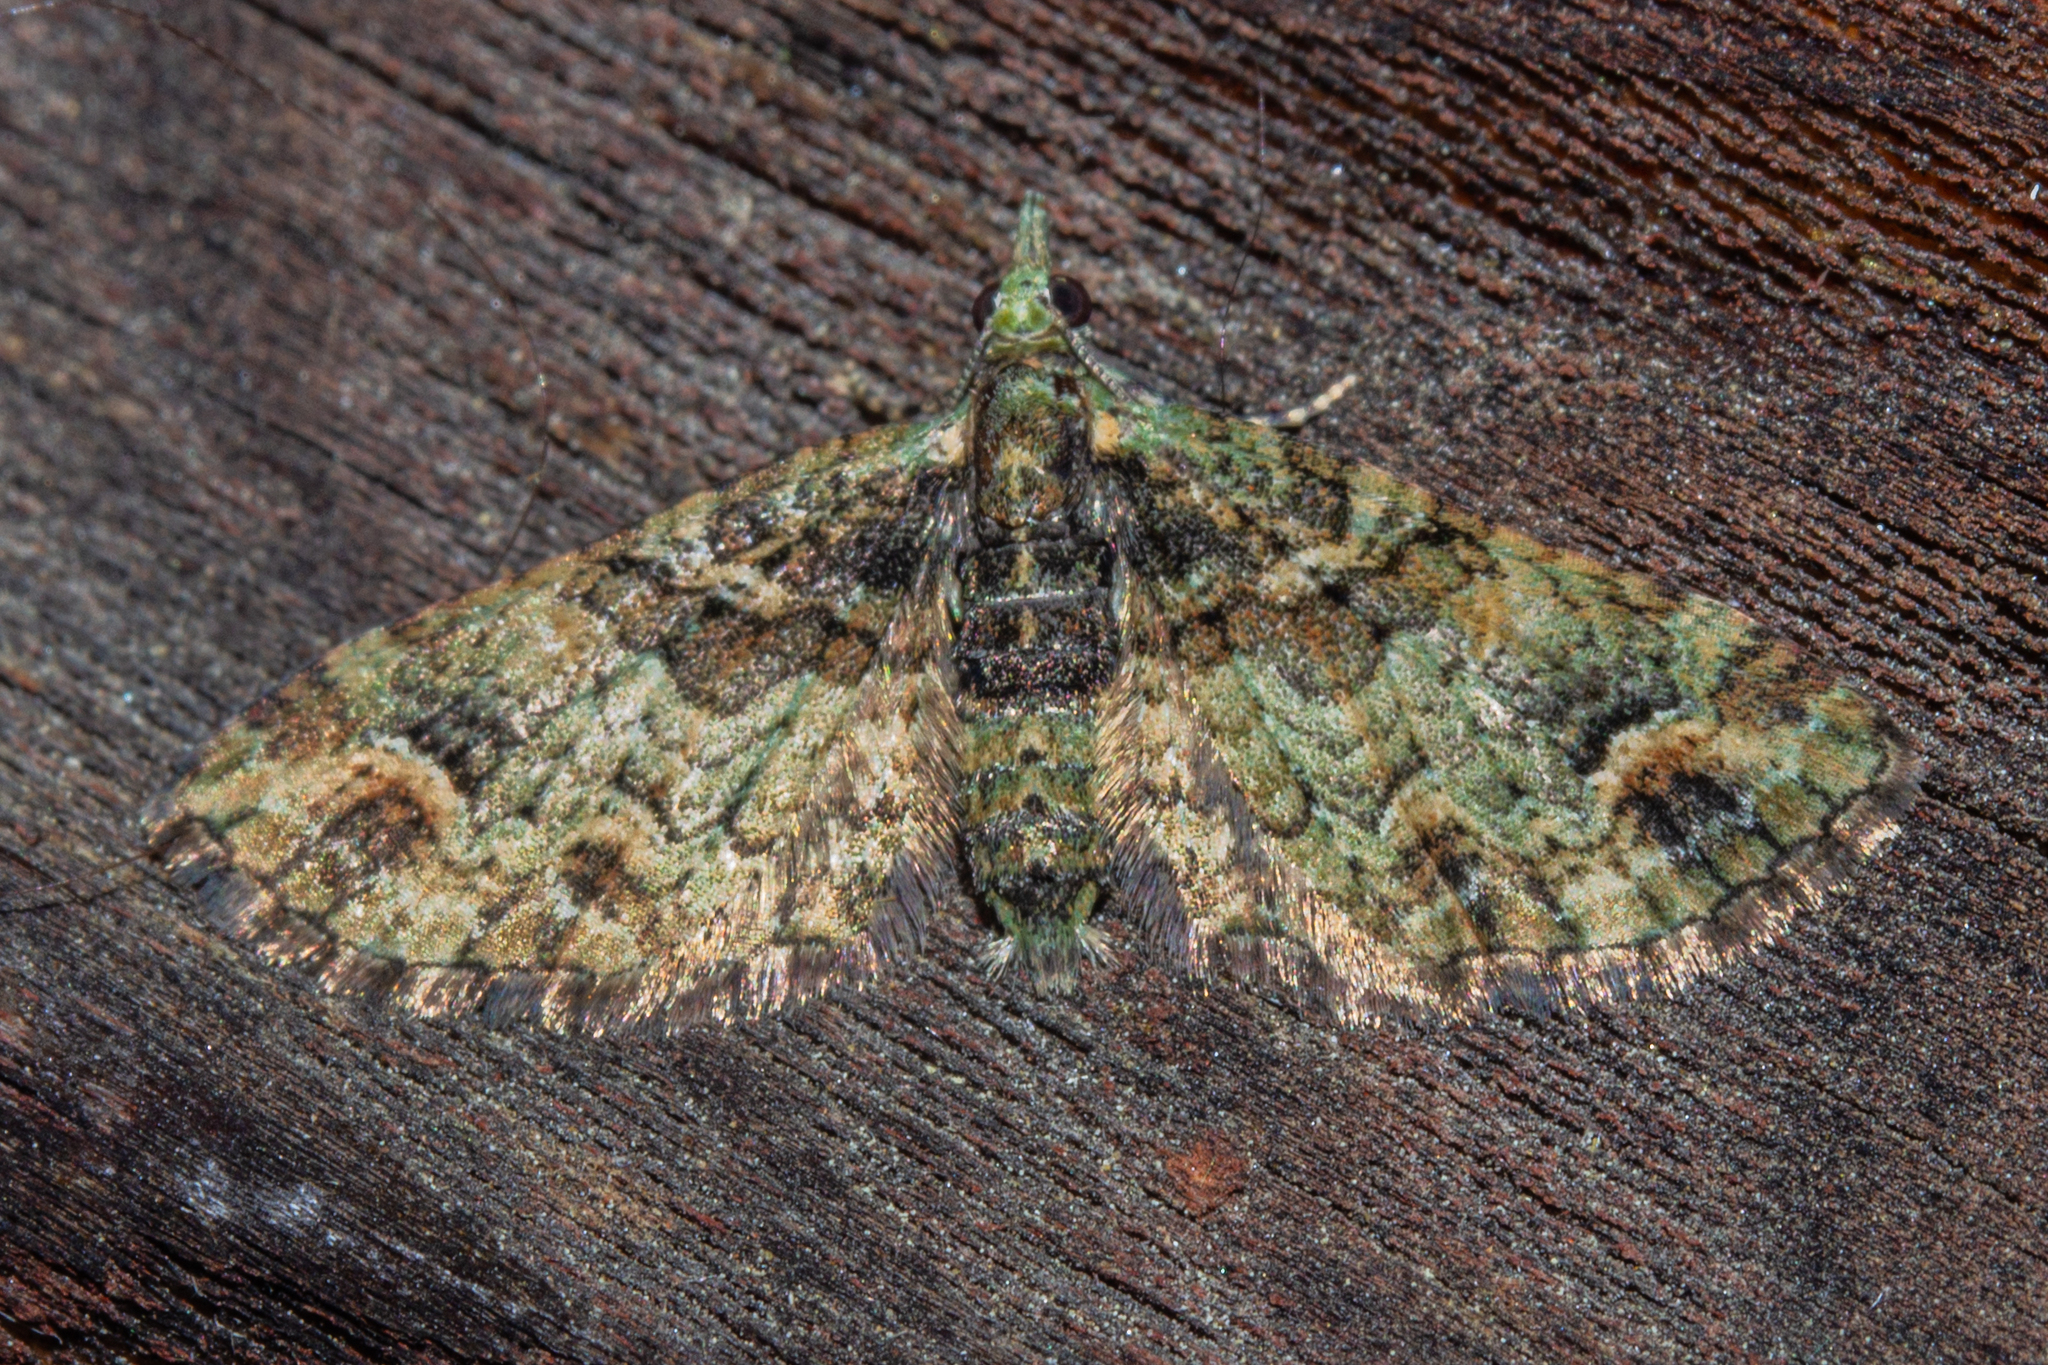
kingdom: Animalia
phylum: Arthropoda
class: Insecta
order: Lepidoptera
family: Geometridae
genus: Idaea
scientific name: Idaea mutanda
